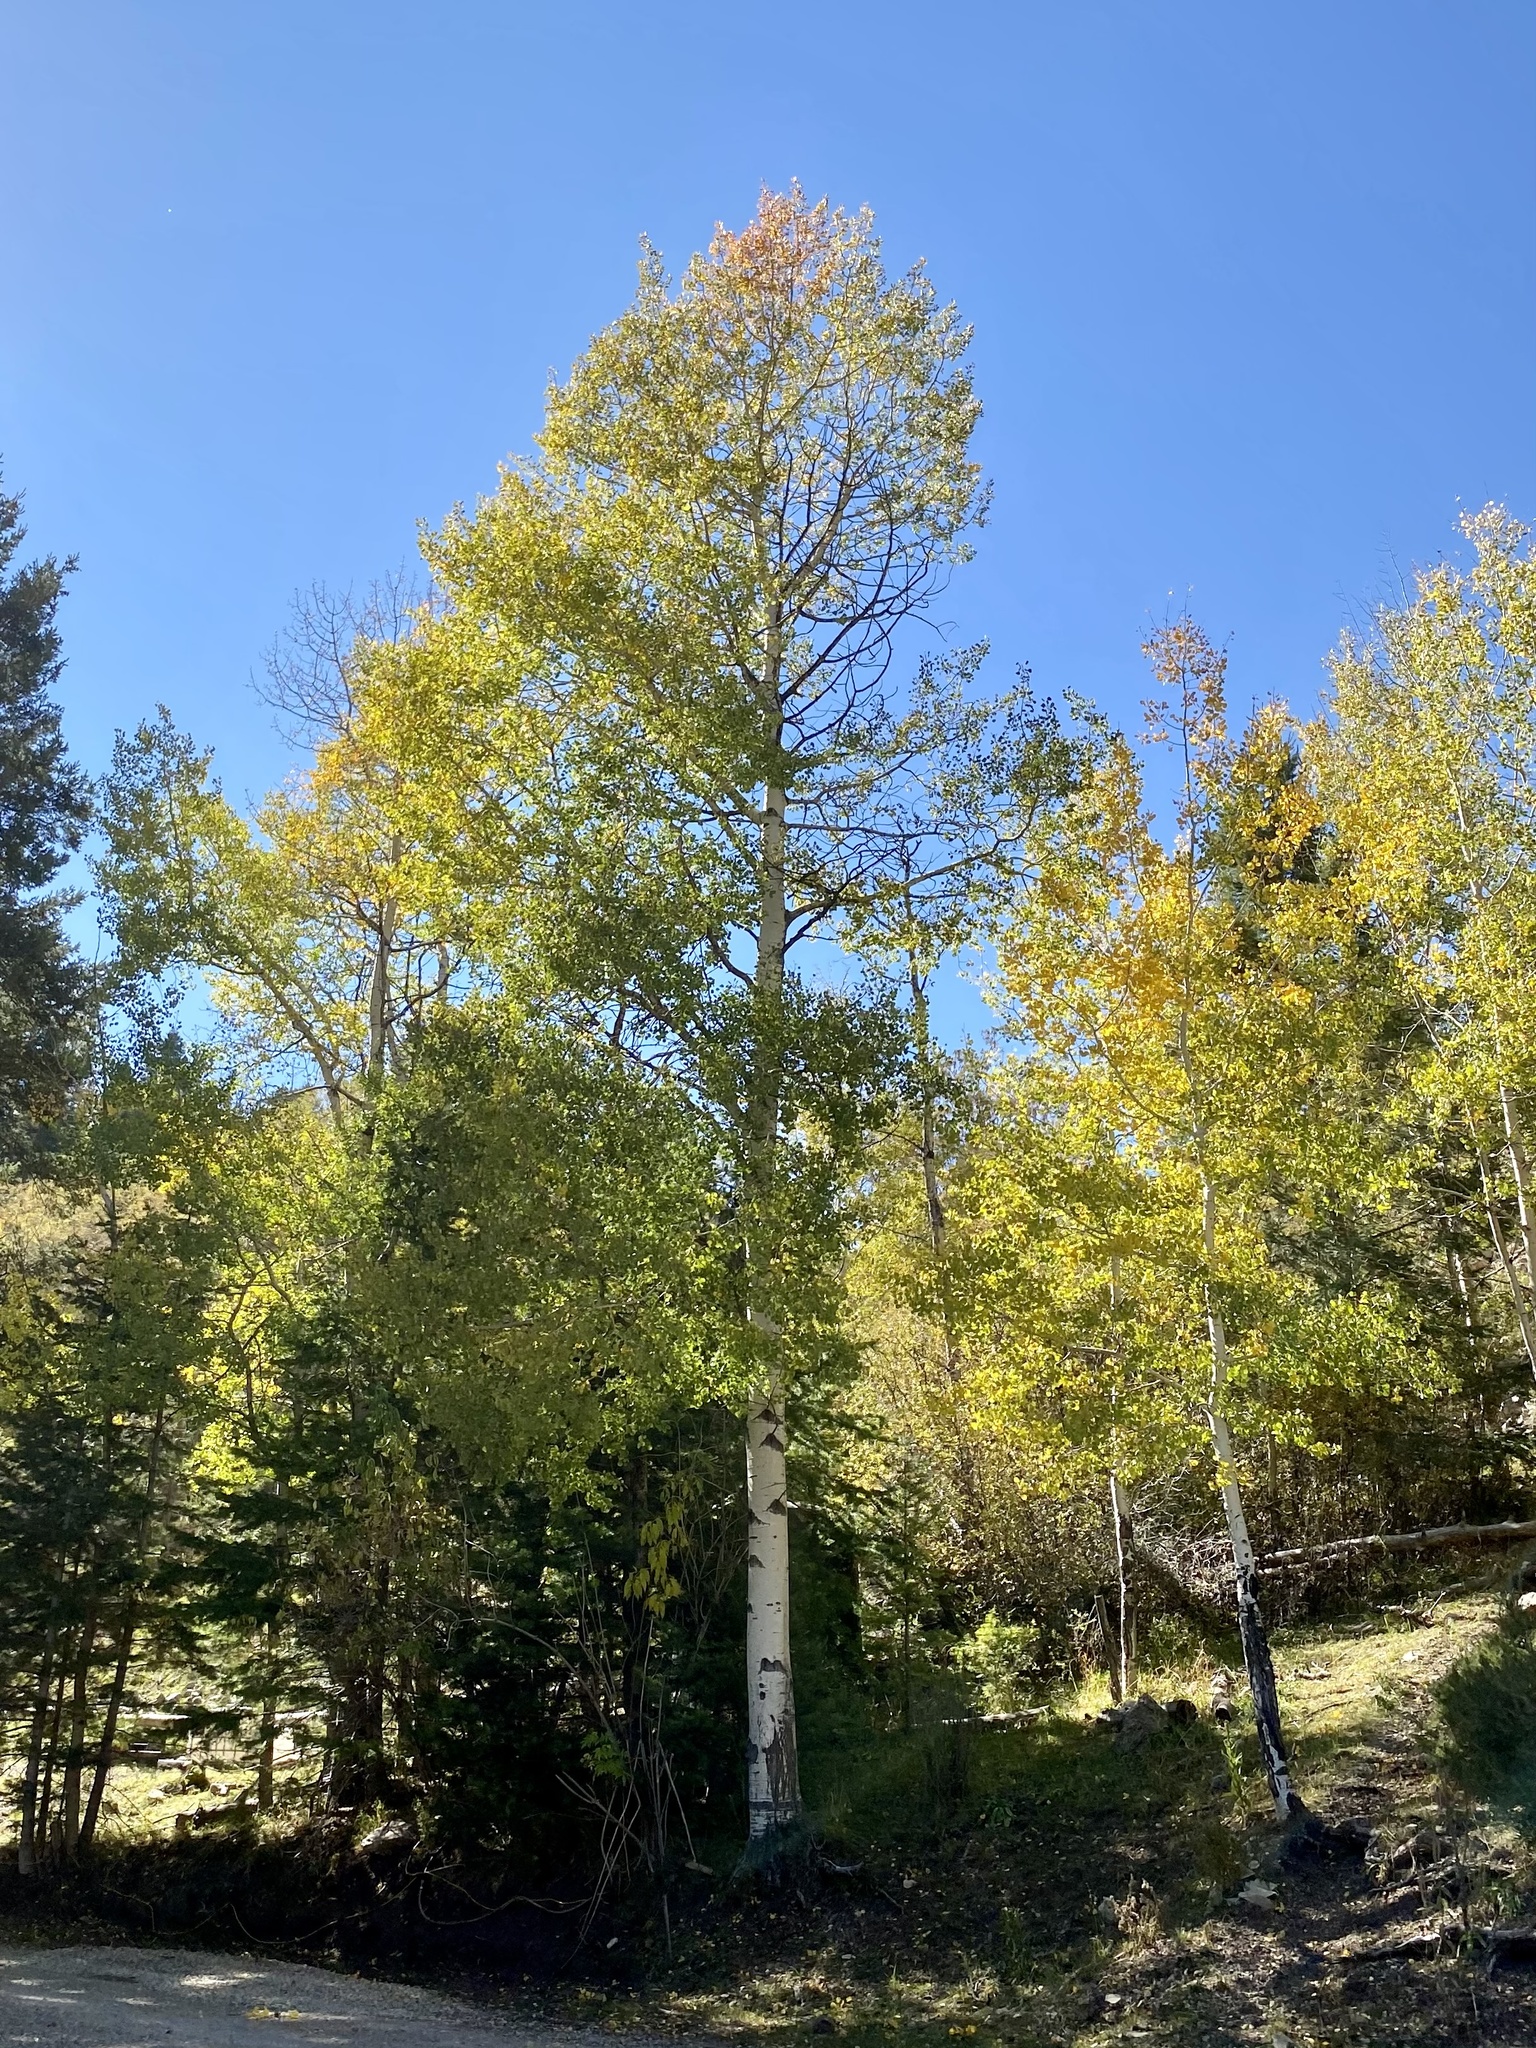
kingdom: Plantae
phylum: Tracheophyta
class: Magnoliopsida
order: Malpighiales
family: Salicaceae
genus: Populus
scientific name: Populus tremuloides
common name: Quaking aspen
